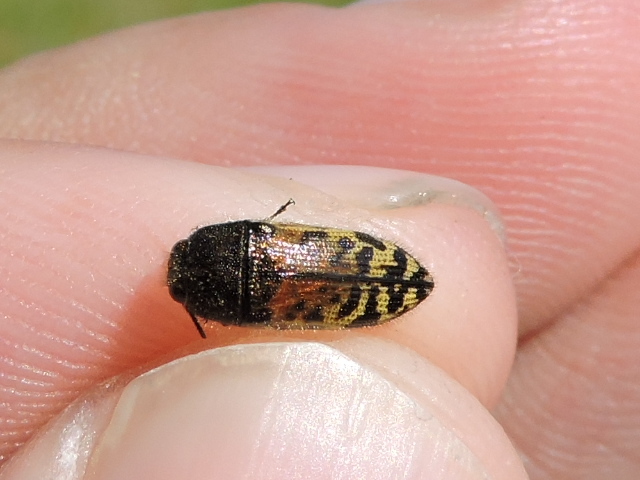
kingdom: Animalia
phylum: Arthropoda
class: Insecta
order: Coleoptera
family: Buprestidae
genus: Acmaeodera
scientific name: Acmaeodera mixta
